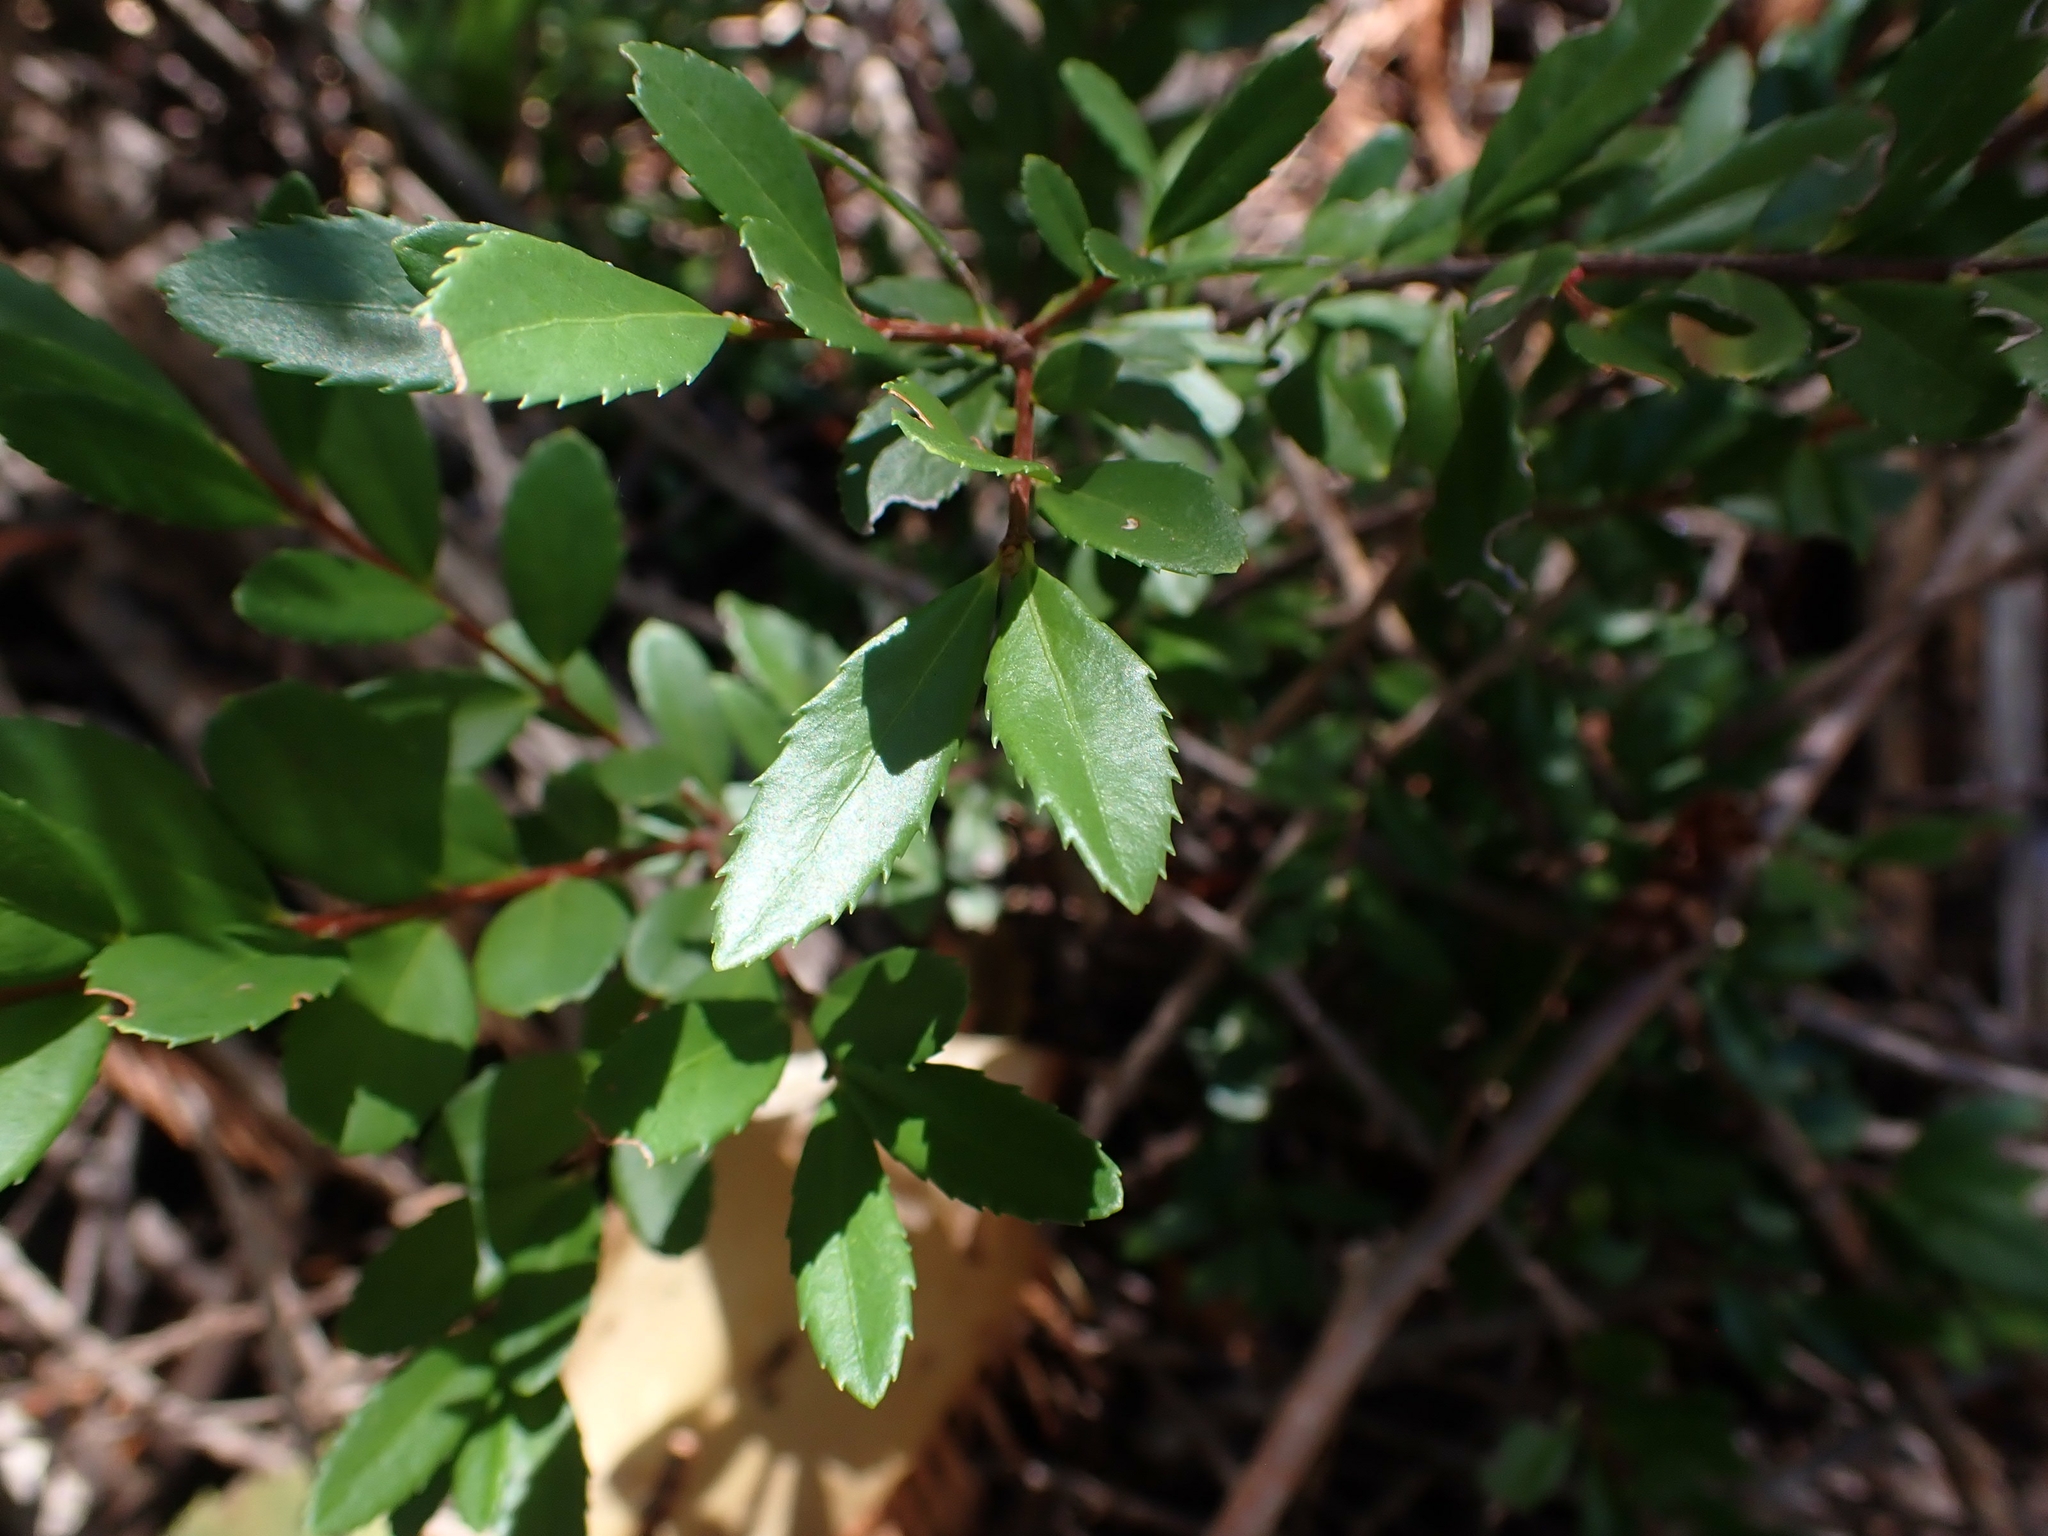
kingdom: Plantae
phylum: Tracheophyta
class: Magnoliopsida
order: Celastrales
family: Celastraceae
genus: Paxistima
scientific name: Paxistima myrsinites
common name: Mountain-lover
